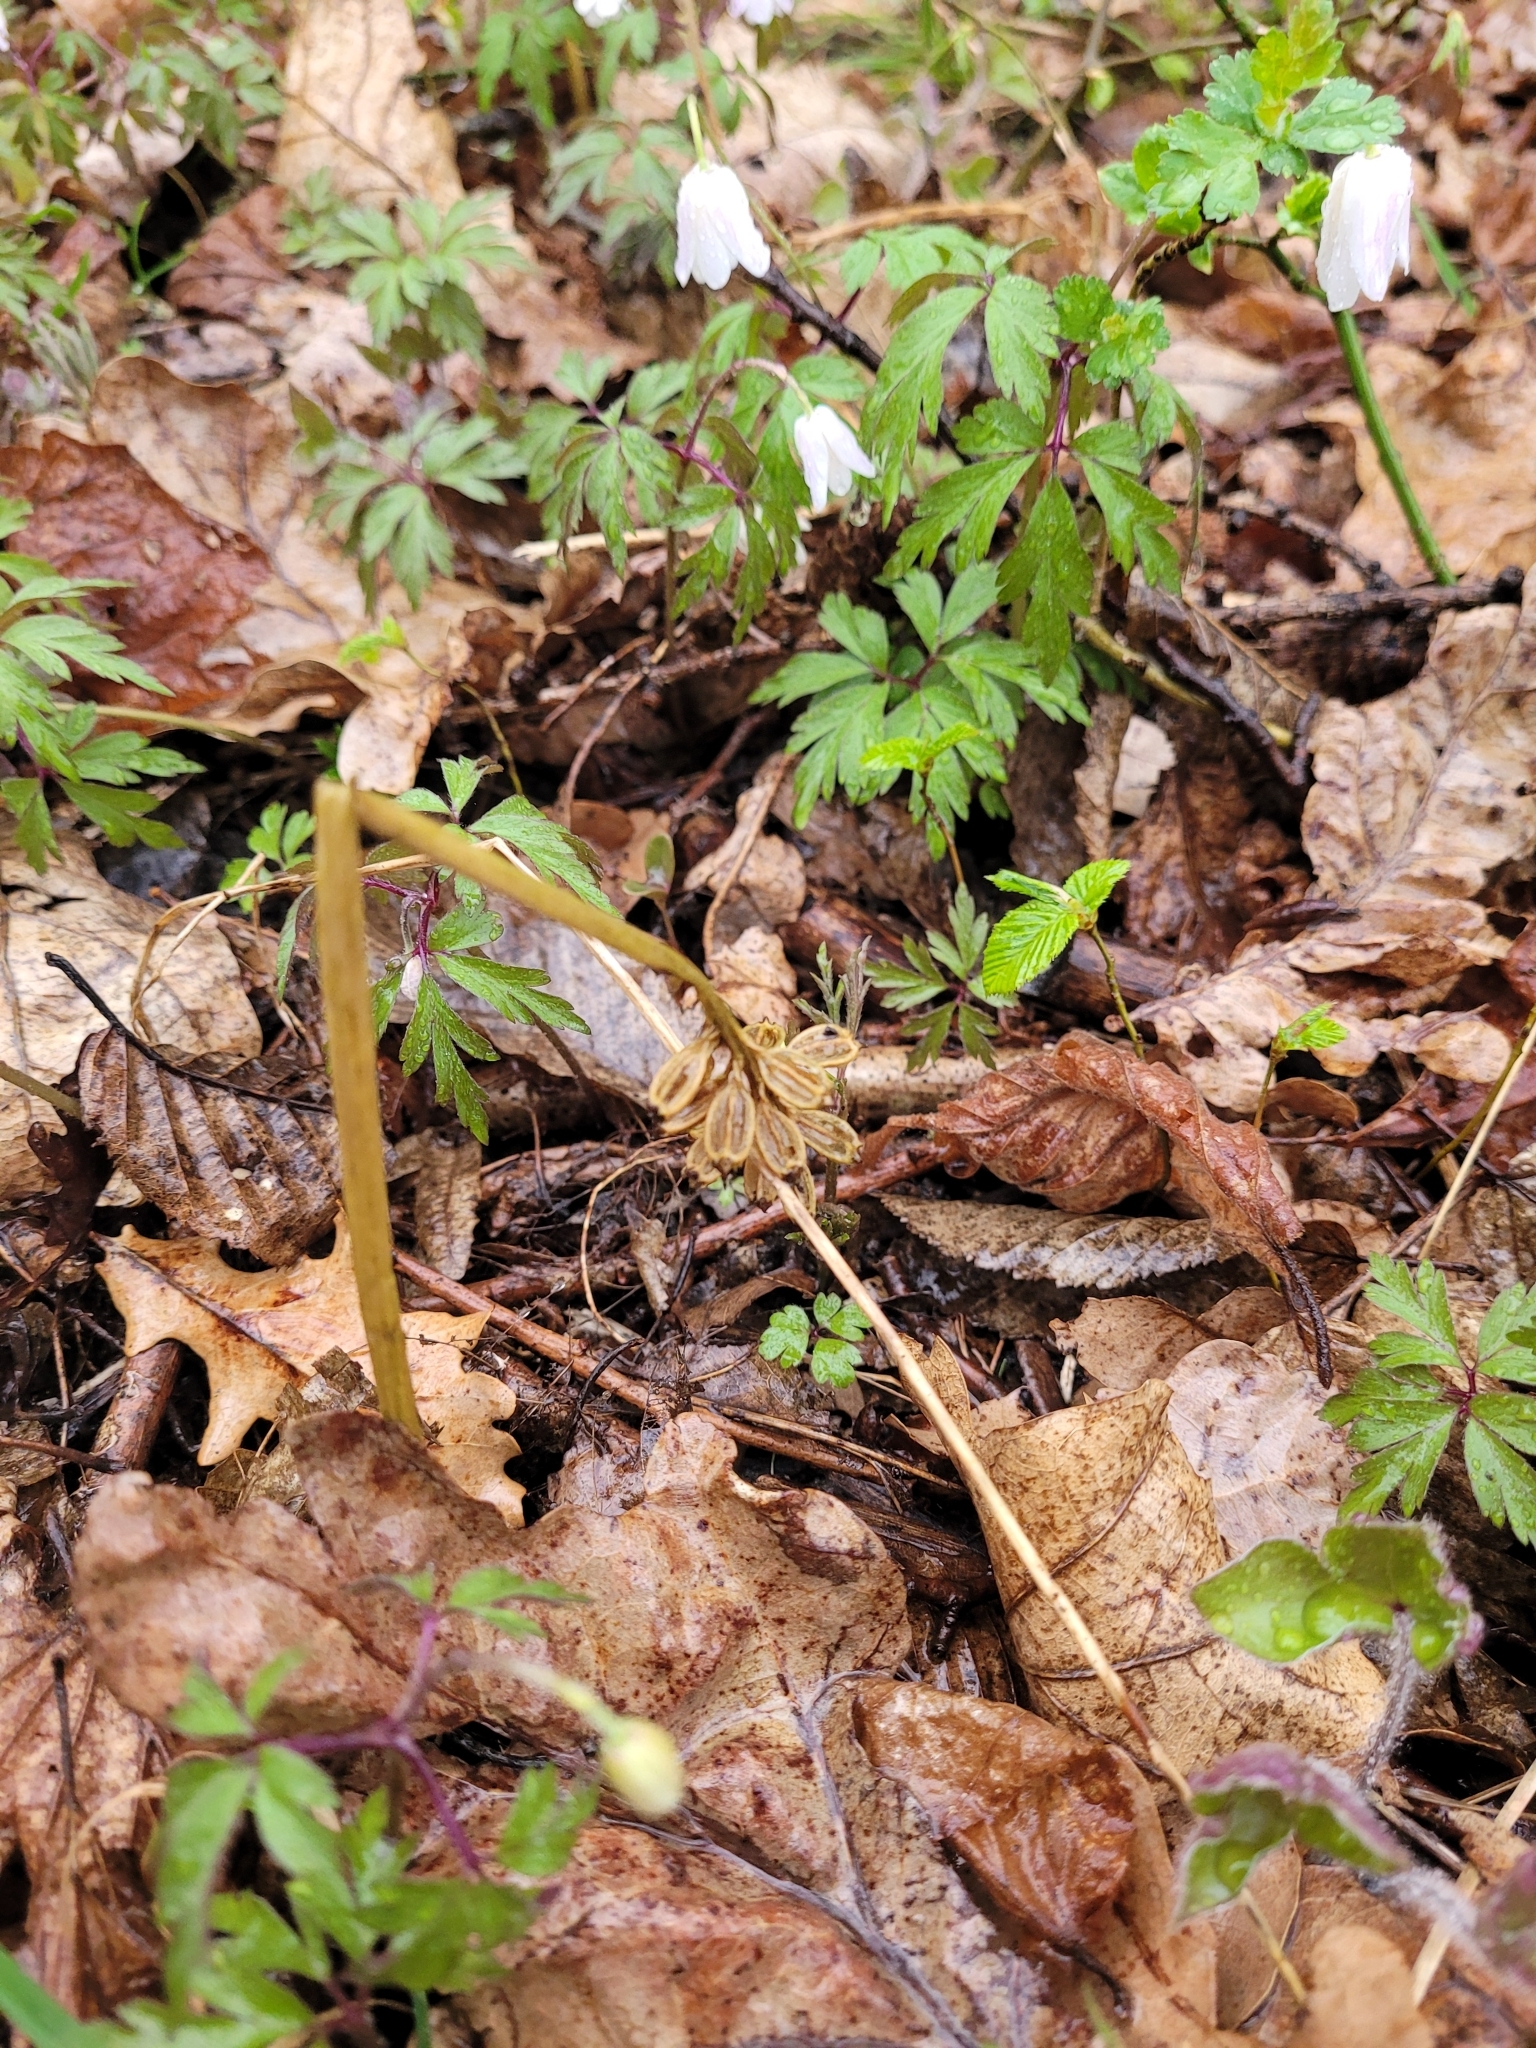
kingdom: Plantae
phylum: Tracheophyta
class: Liliopsida
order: Asparagales
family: Orchidaceae
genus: Neottia
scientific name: Neottia nidus-avis
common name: Bird's-nest orchid
